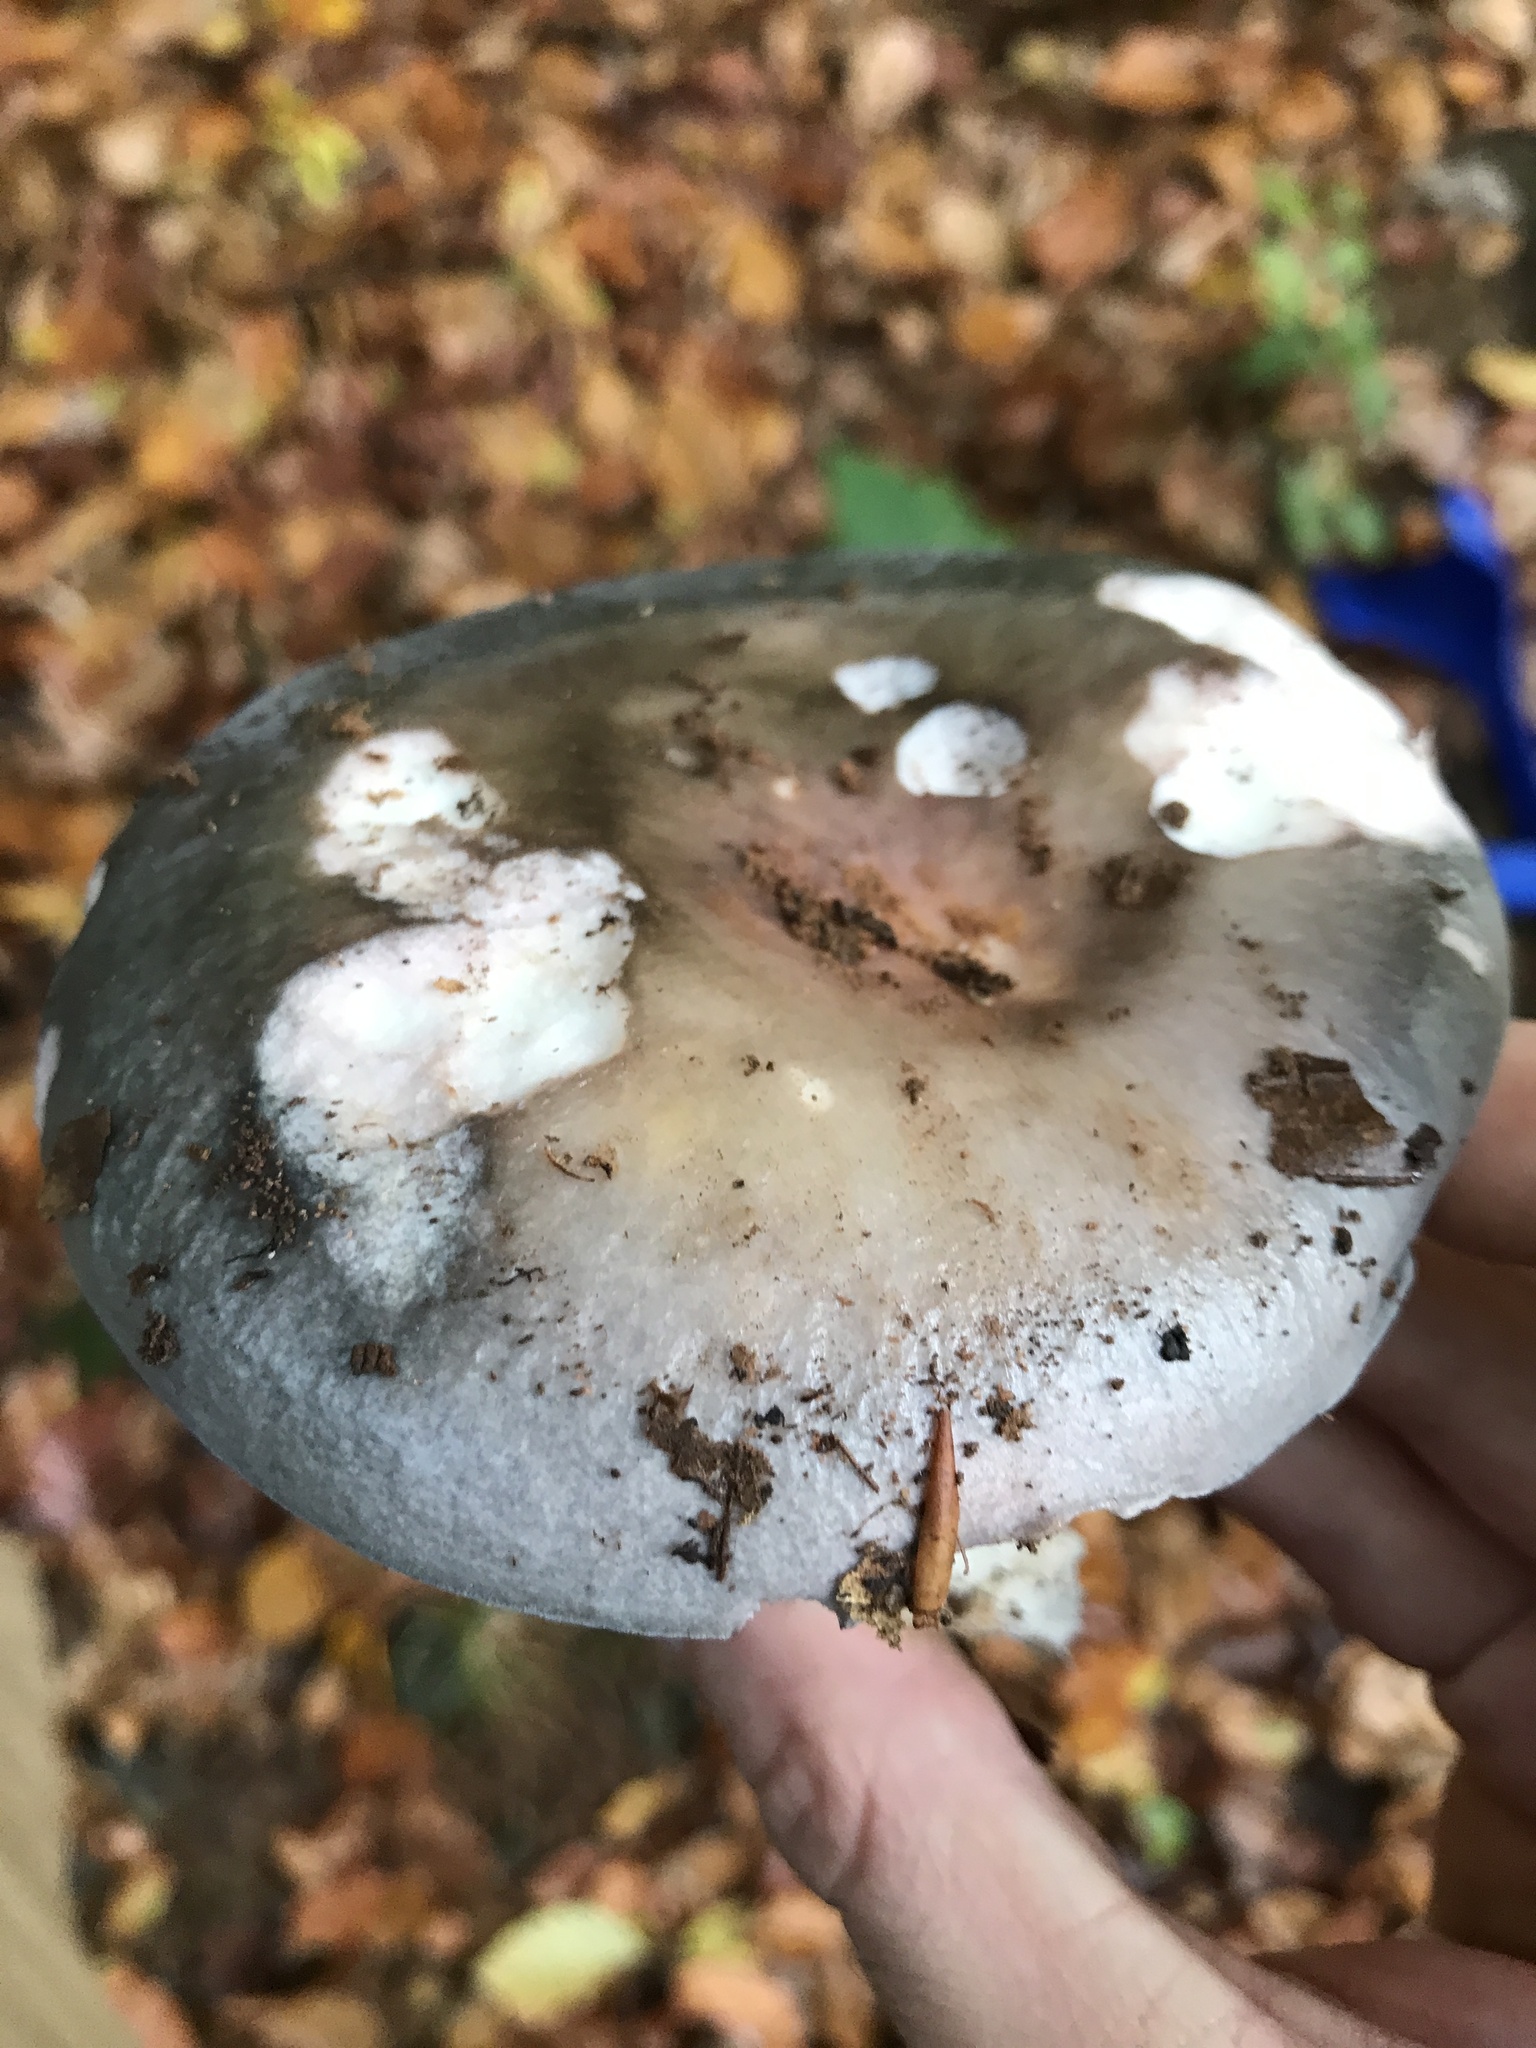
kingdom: Fungi
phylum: Basidiomycota
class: Agaricomycetes
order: Russulales
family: Russulaceae
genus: Russula
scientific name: Russula cyanoxantha
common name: Charcoal burner
